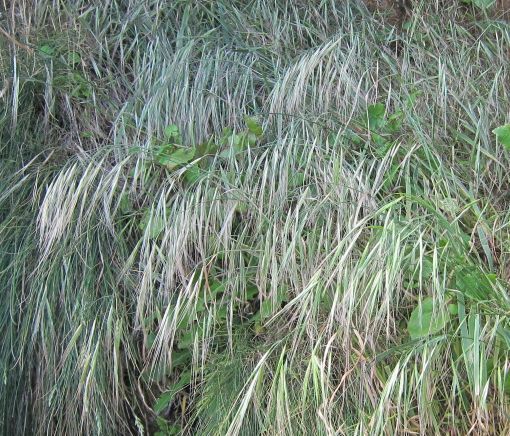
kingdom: Plantae
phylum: Tracheophyta
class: Liliopsida
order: Poales
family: Poaceae
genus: Bromus
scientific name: Bromus diandrus
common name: Ripgut brome
